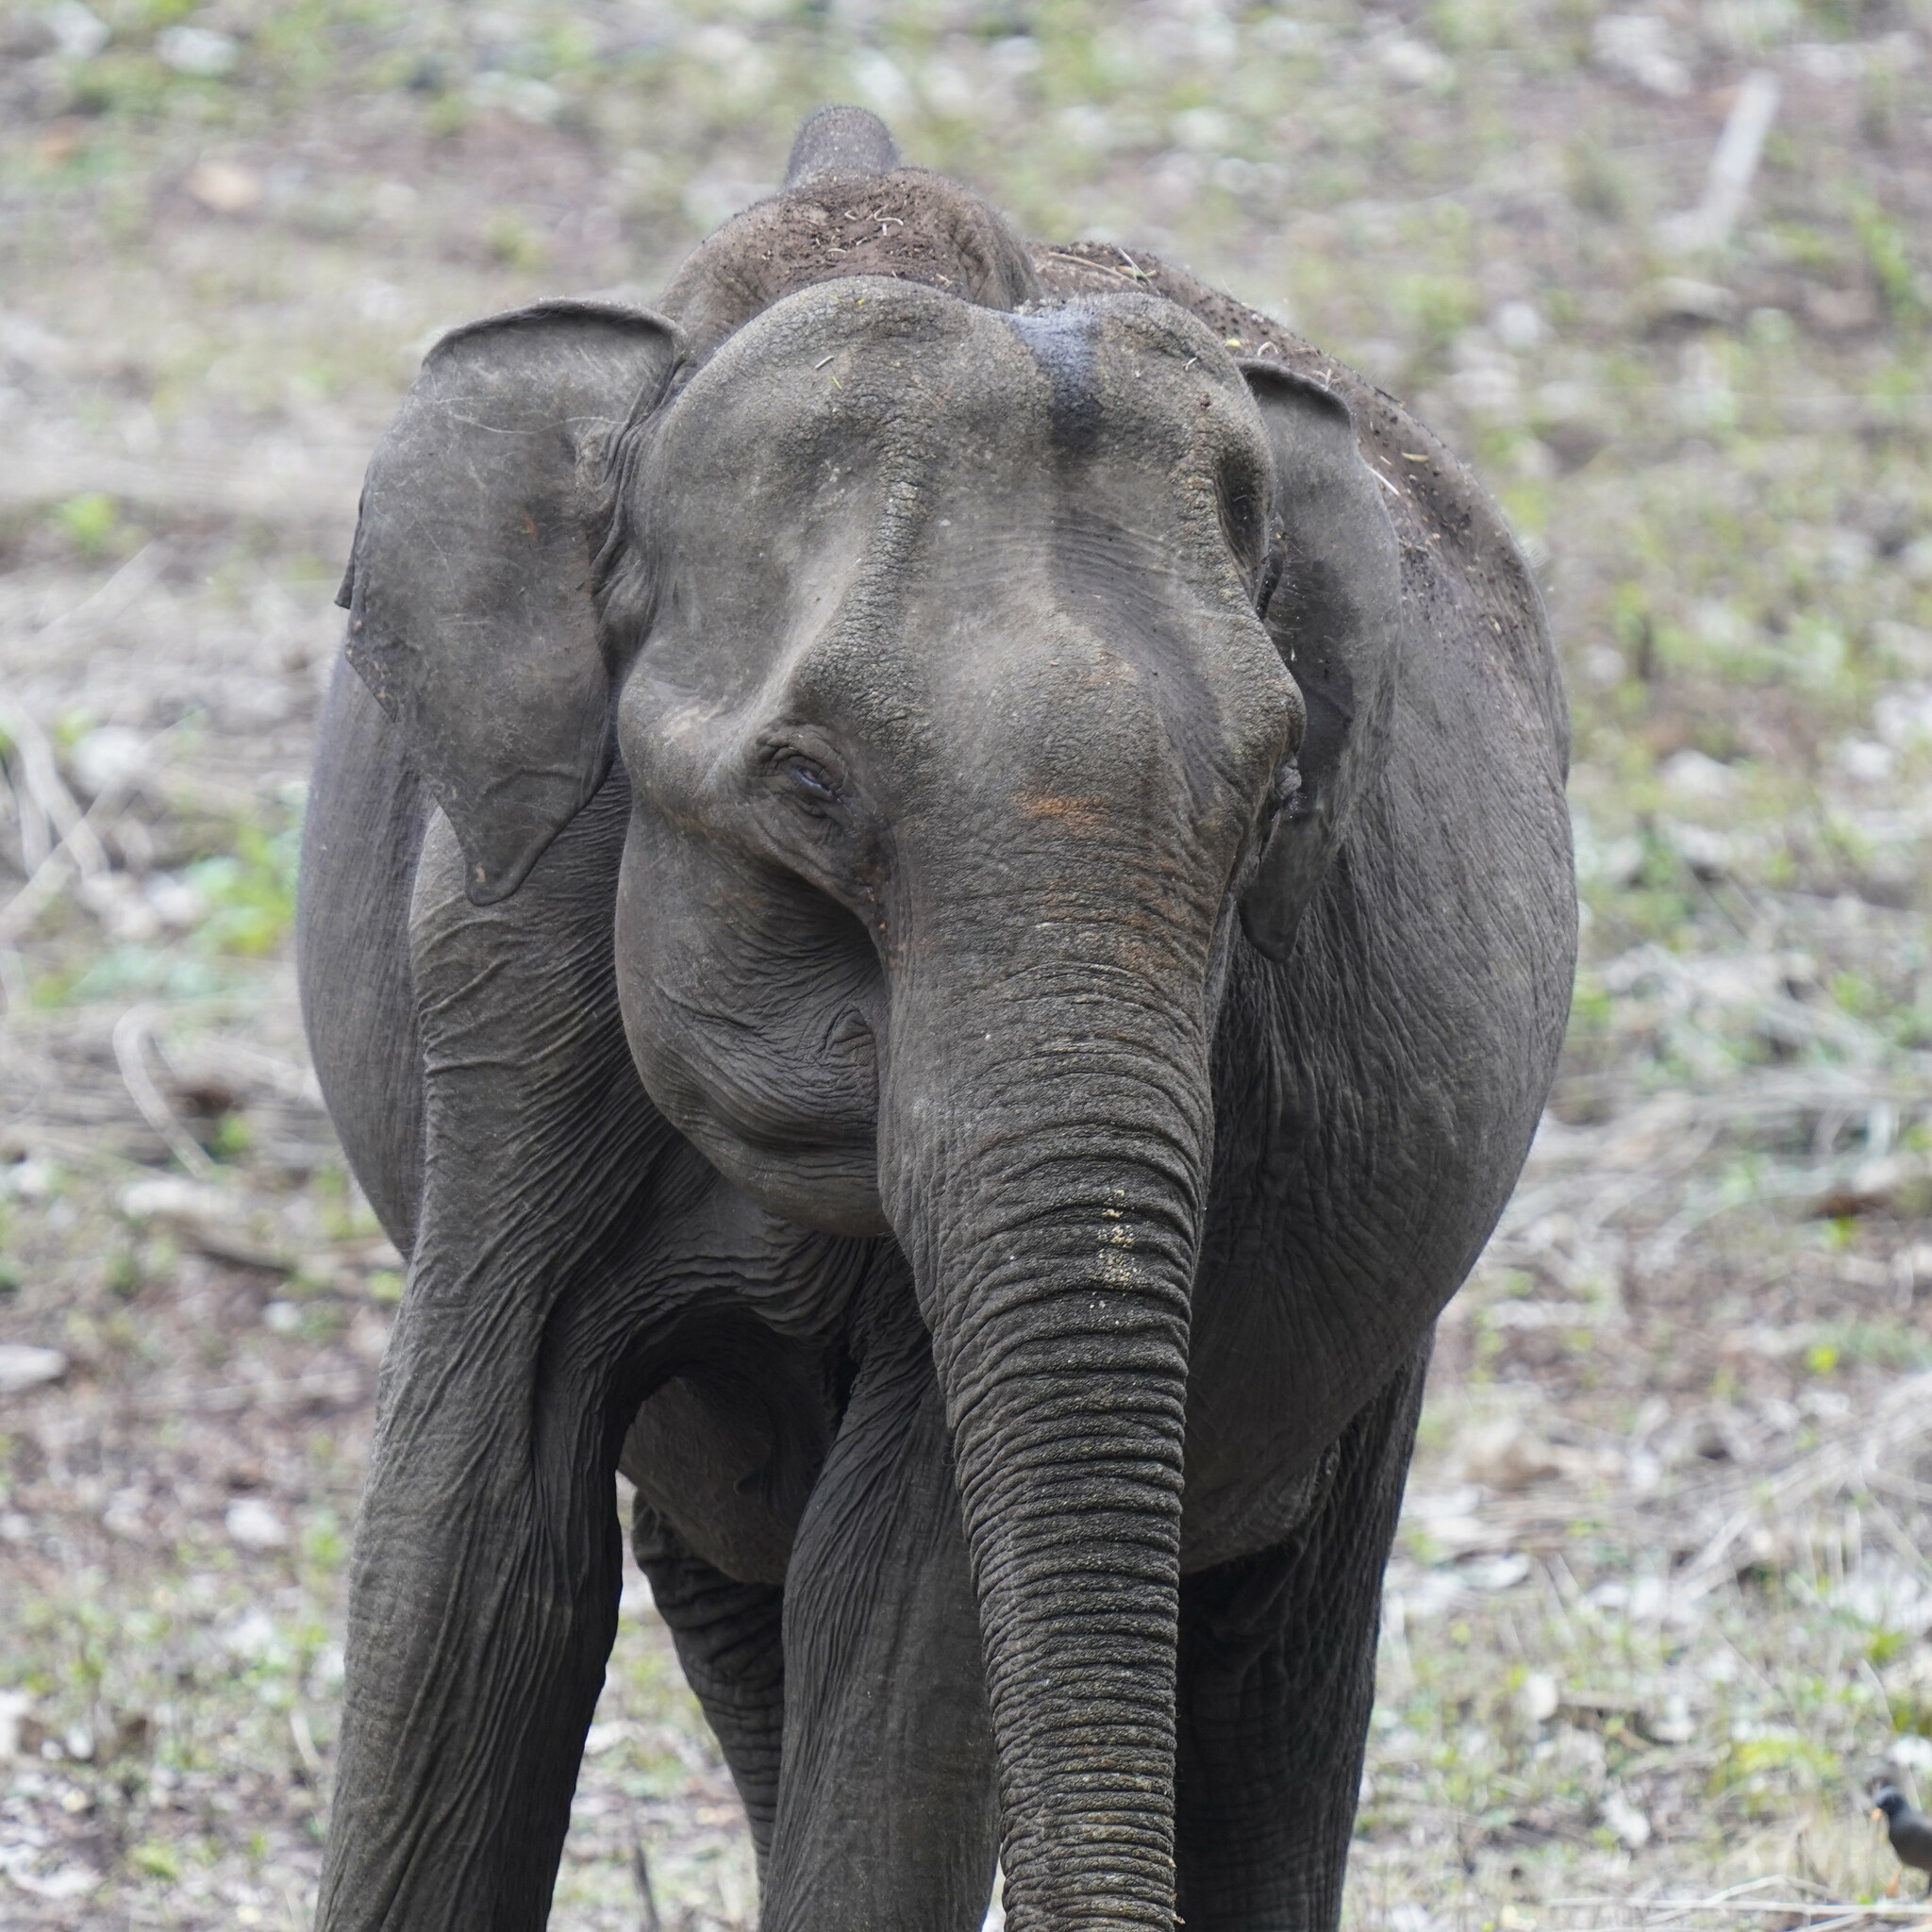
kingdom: Animalia
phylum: Chordata
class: Mammalia
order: Proboscidea
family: Elephantidae
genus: Elephas
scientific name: Elephas maximus
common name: Asian elephant
